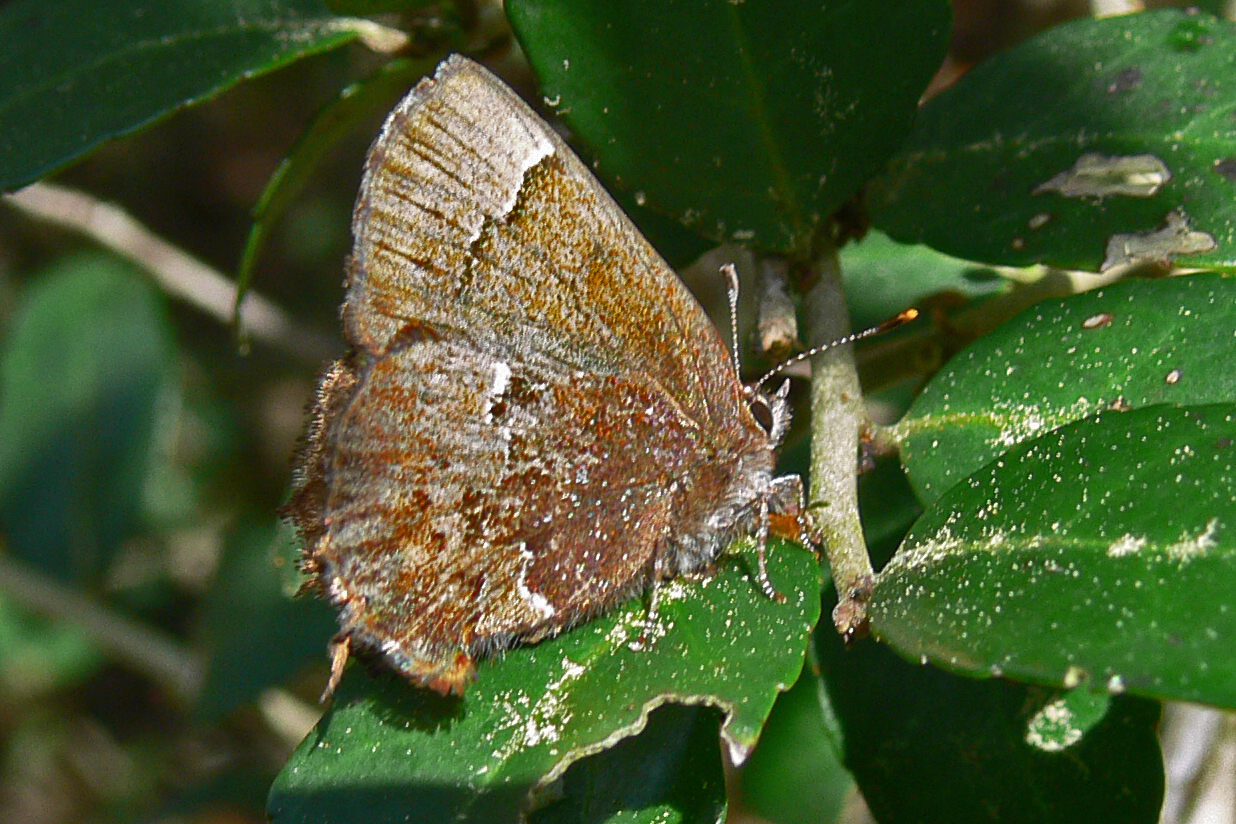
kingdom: Animalia
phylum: Arthropoda
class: Insecta
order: Lepidoptera
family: Lycaenidae
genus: Incisalia
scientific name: Incisalia henrici
